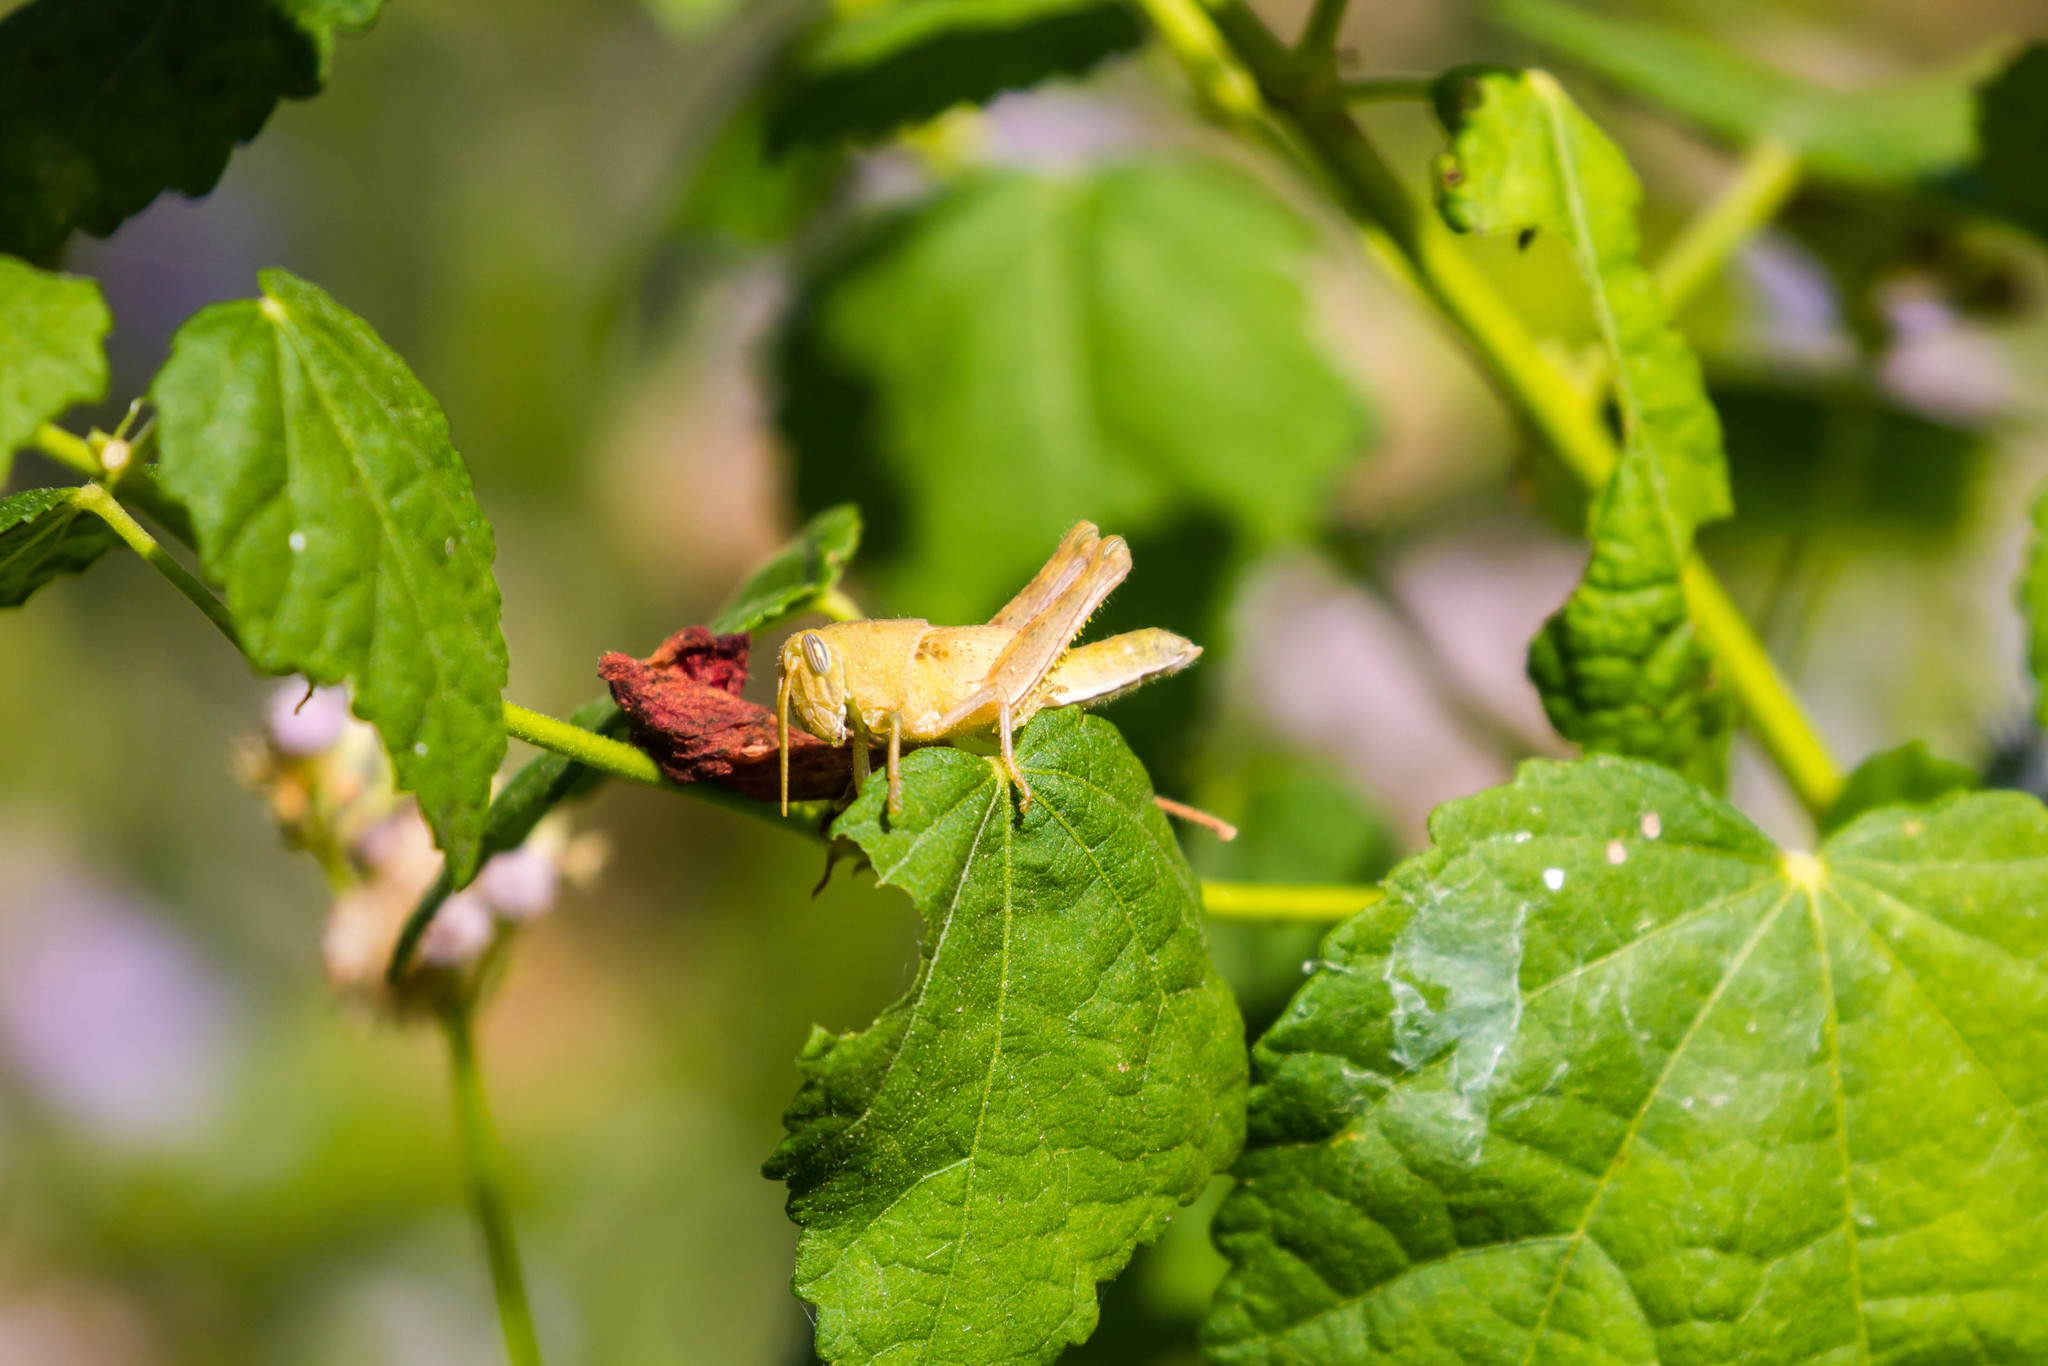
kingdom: Animalia
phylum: Arthropoda
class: Insecta
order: Orthoptera
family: Acrididae
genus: Schistocerca
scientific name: Schistocerca nitens
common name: Vagrant grasshopper
